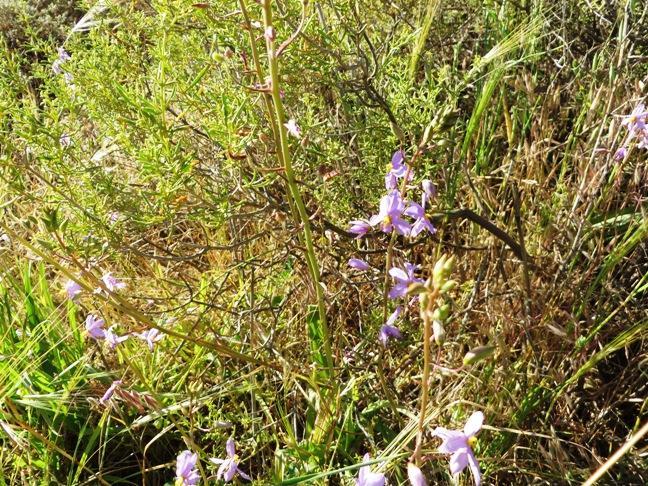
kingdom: Plantae
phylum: Tracheophyta
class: Liliopsida
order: Asparagales
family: Tecophilaeaceae
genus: Cyanella
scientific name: Cyanella hyacinthoides
